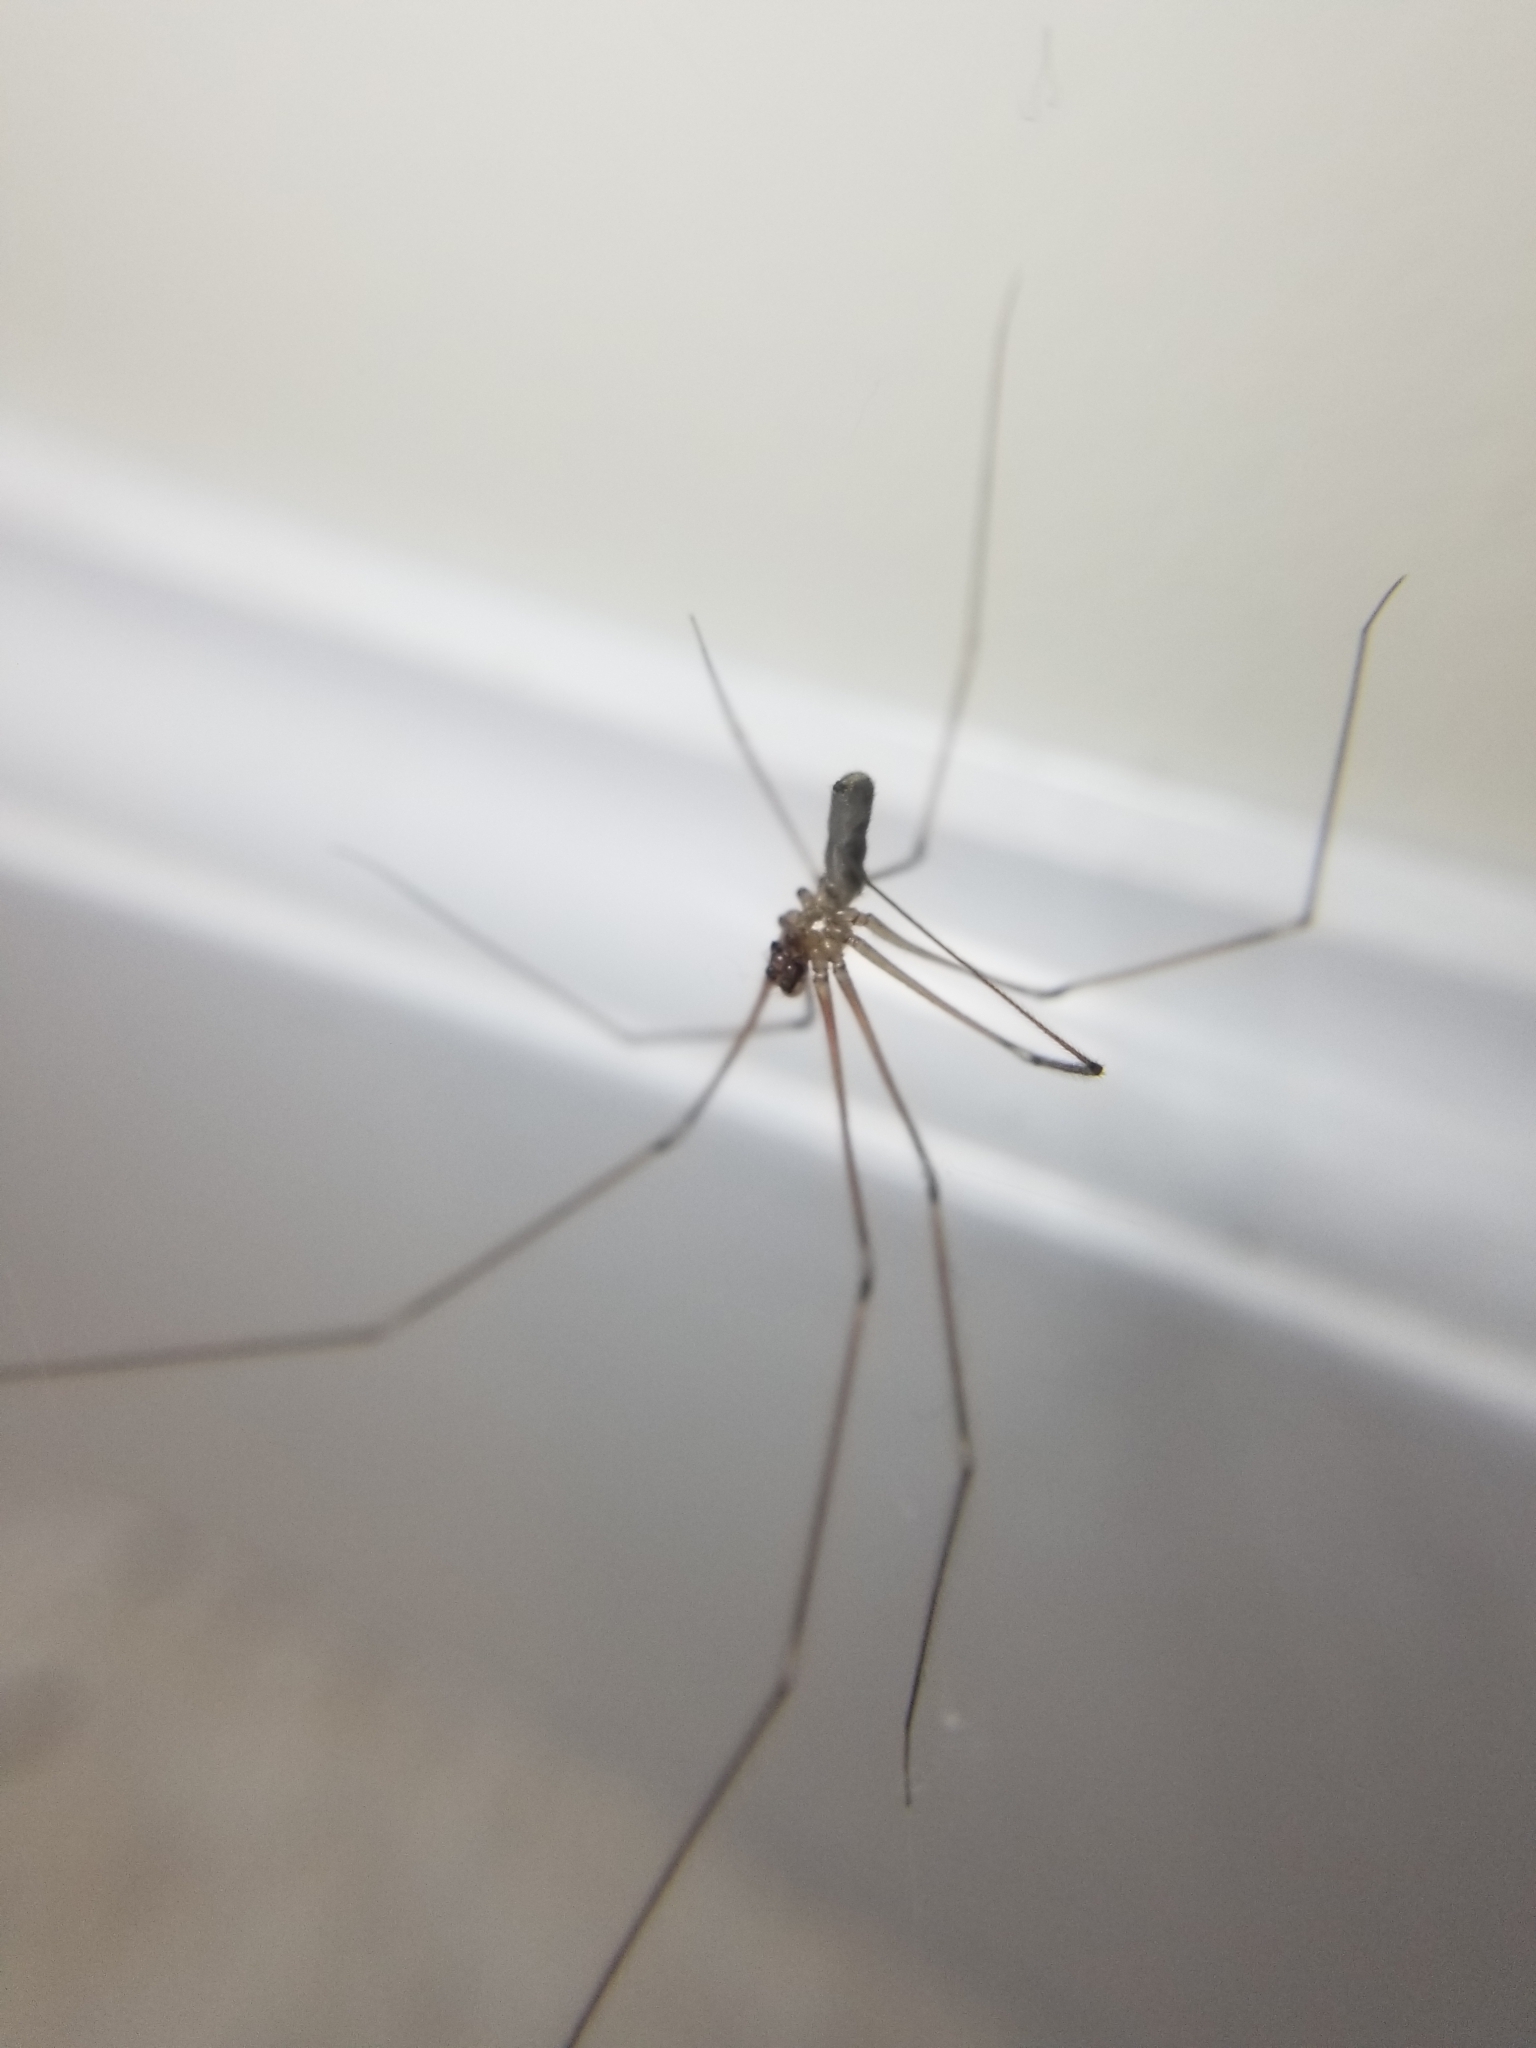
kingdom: Animalia
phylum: Arthropoda
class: Arachnida
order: Araneae
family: Pholcidae
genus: Pholcus
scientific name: Pholcus phalangioides
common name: Longbodied cellar spider
